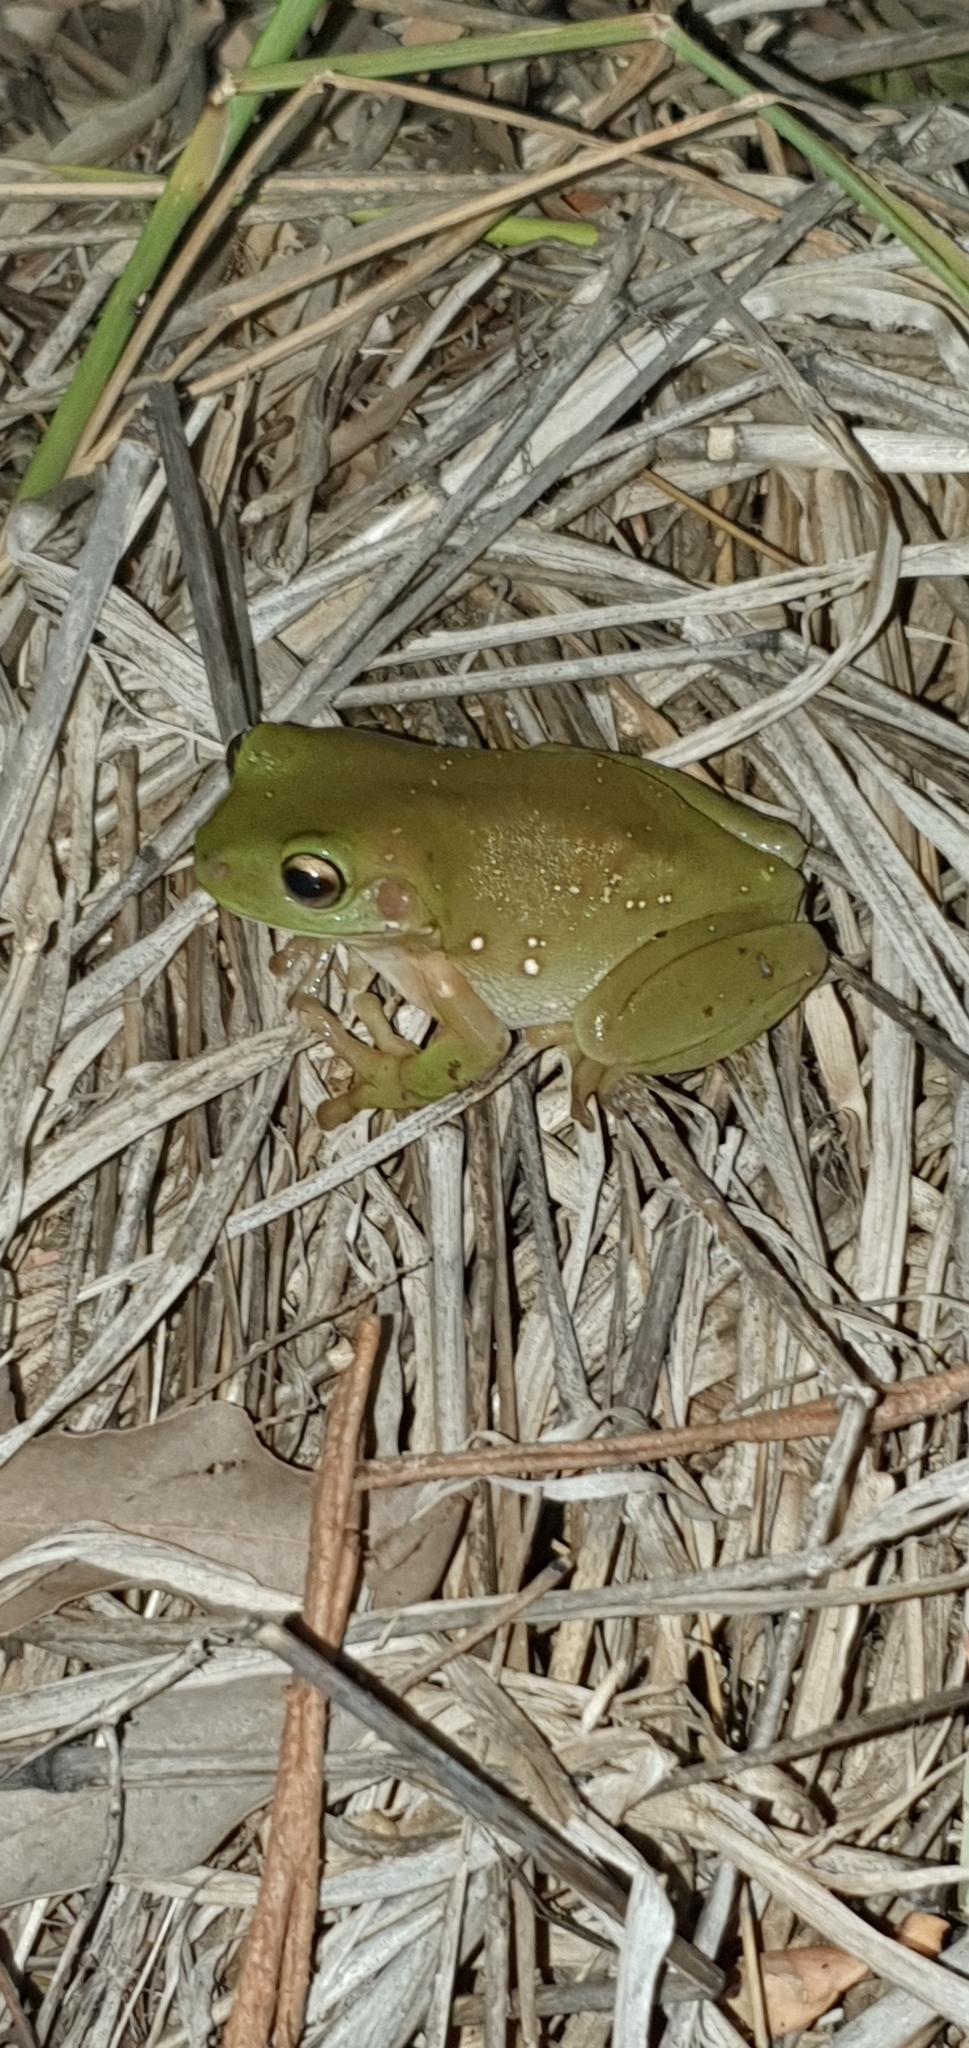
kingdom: Animalia
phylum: Chordata
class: Amphibia
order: Anura
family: Pelodryadidae
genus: Ranoidea
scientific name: Ranoidea caerulea
